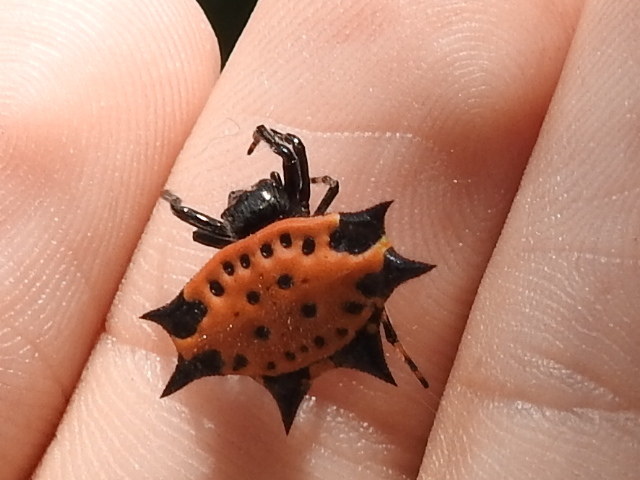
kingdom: Animalia
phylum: Arthropoda
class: Arachnida
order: Araneae
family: Araneidae
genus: Gasteracantha
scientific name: Gasteracantha cancriformis
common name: Orb weavers
